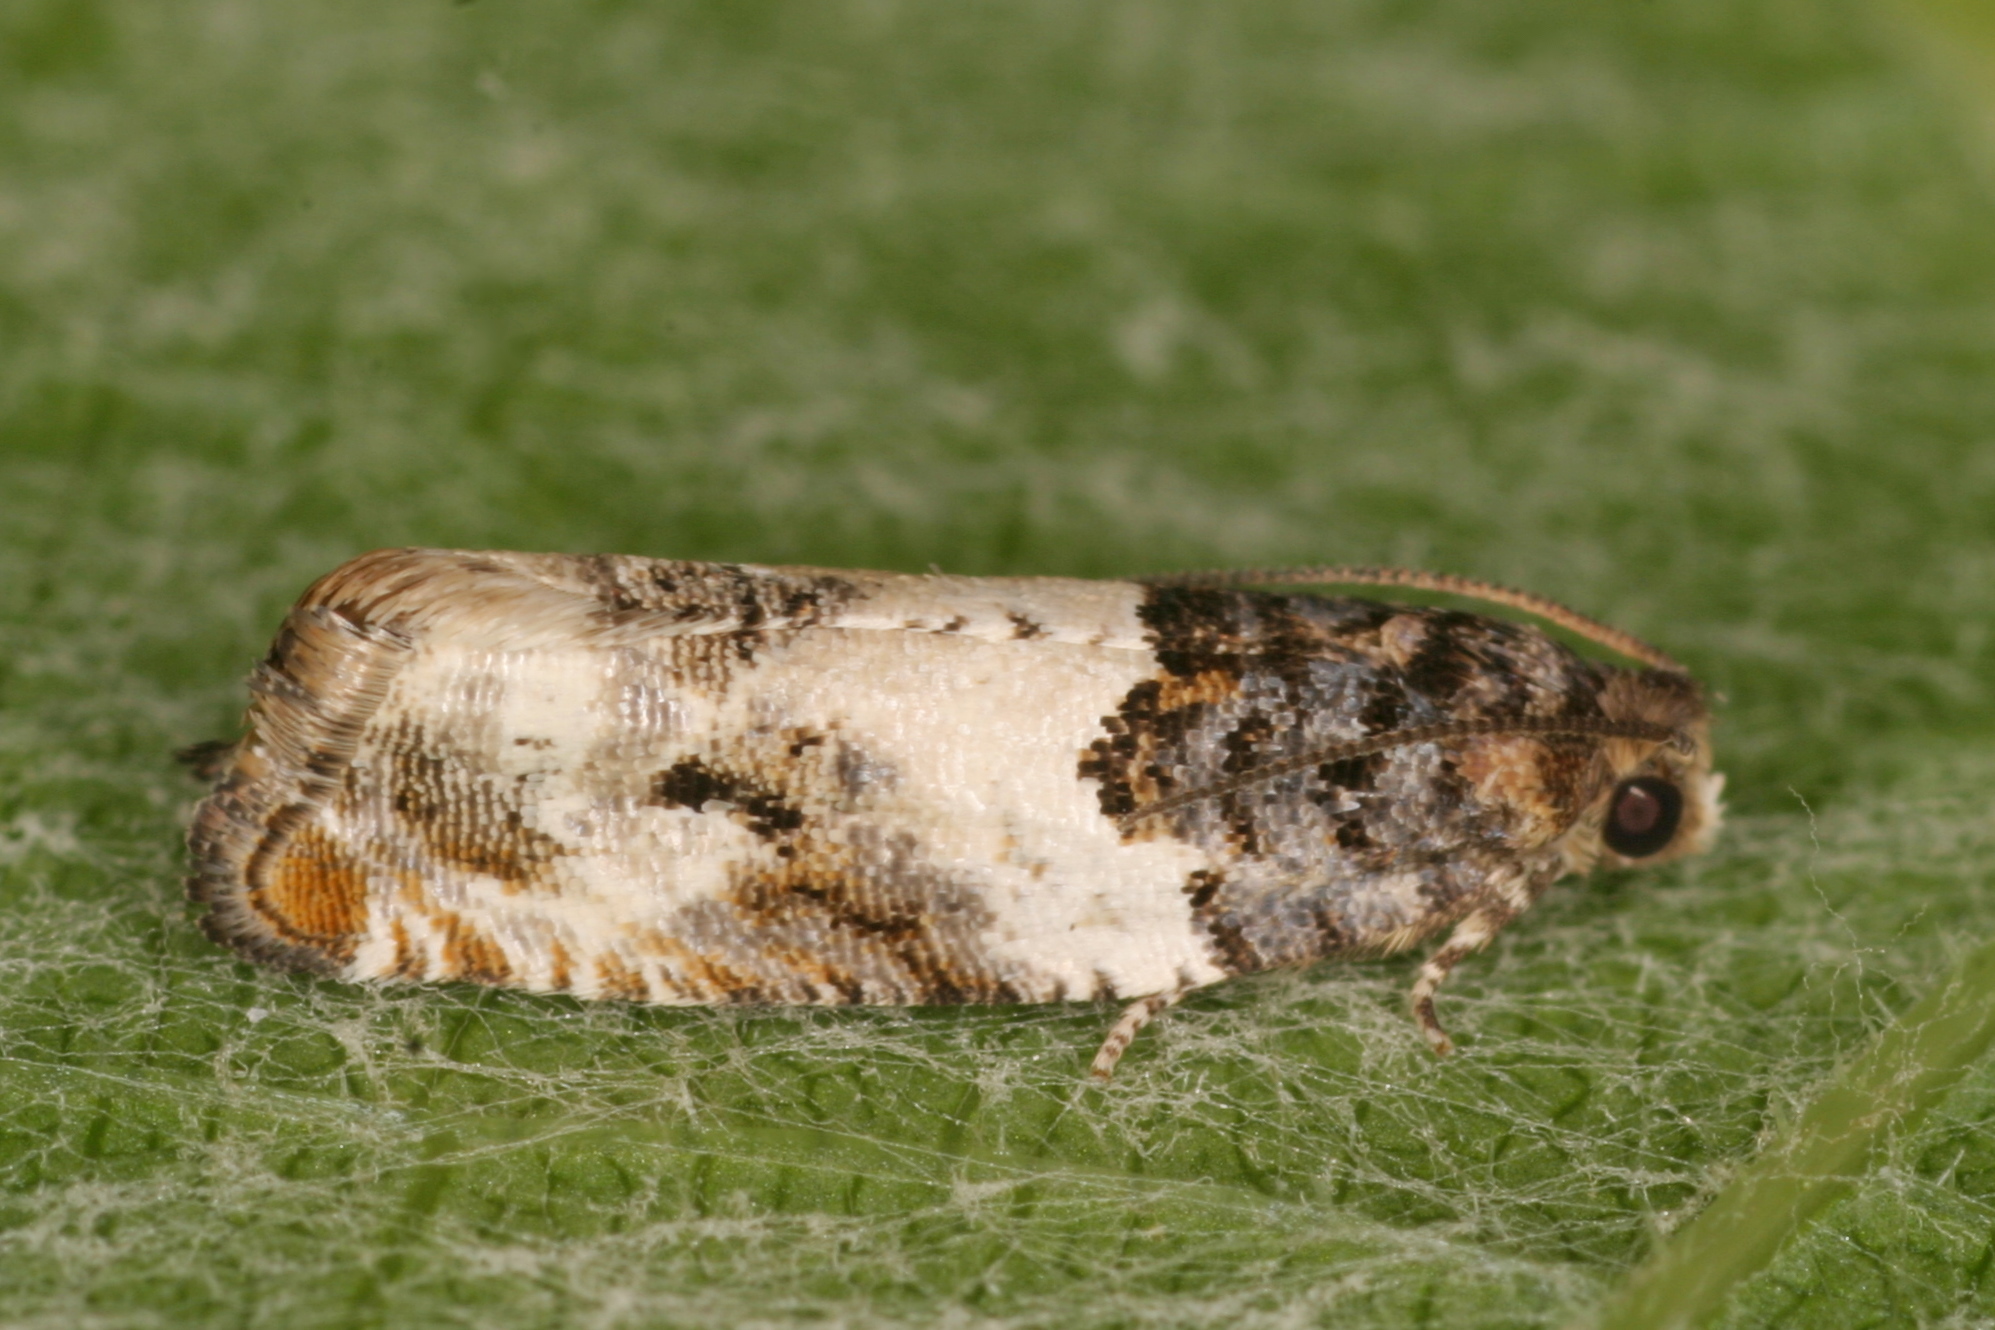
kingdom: Animalia
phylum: Arthropoda
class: Insecta
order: Lepidoptera
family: Tortricidae
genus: Gypsonoma
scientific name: Gypsonoma dealbana
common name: Common cloaked shoot
